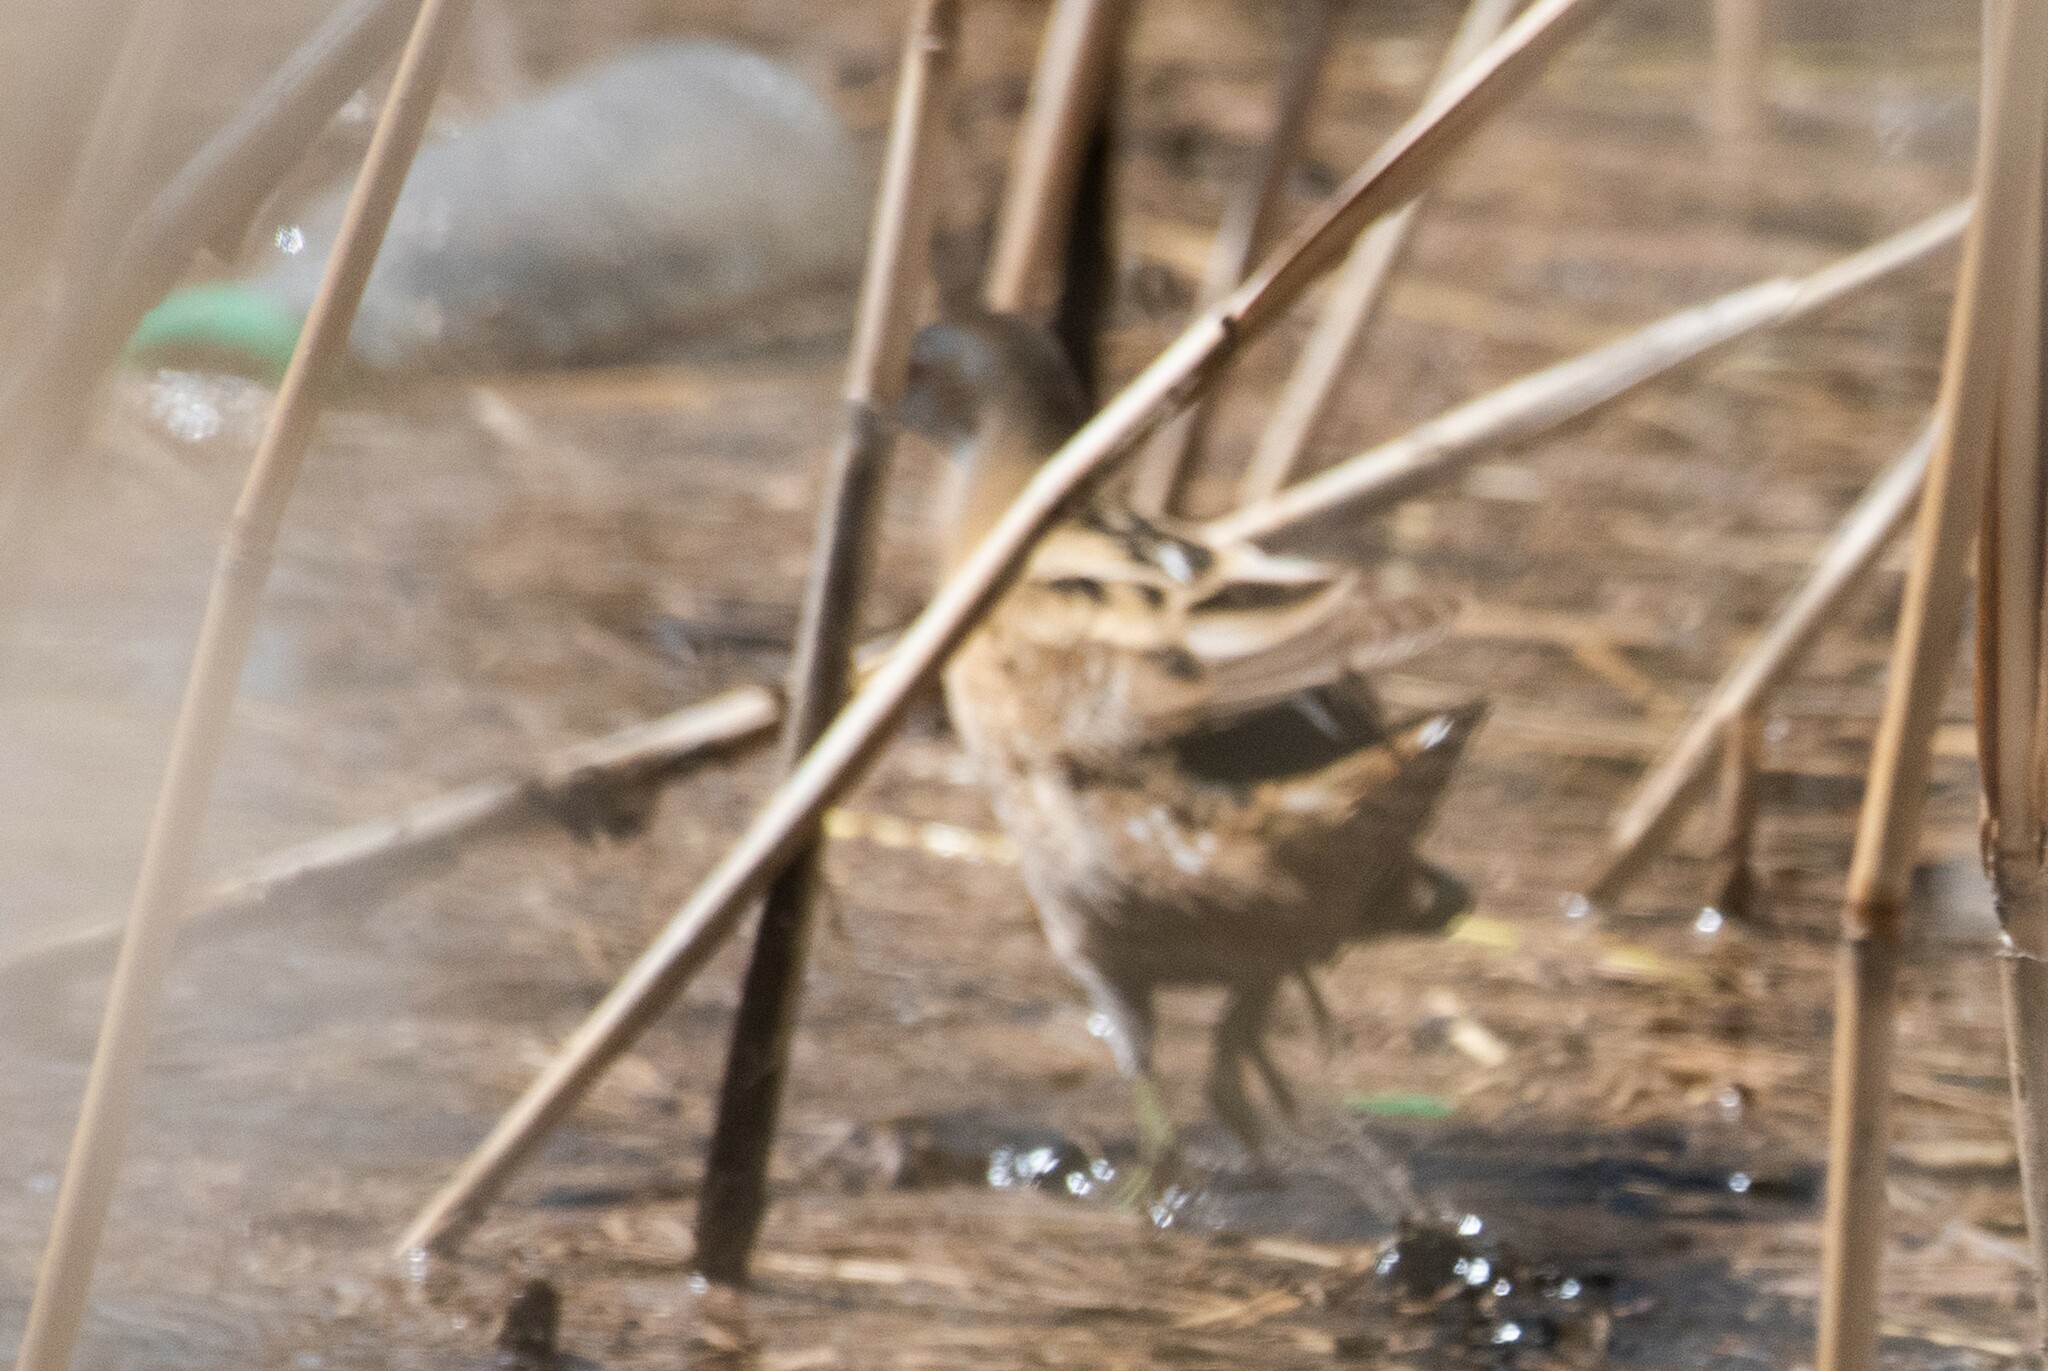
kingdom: Animalia
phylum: Chordata
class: Aves
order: Gruiformes
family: Rallidae
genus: Porzana
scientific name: Porzana parva
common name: Little crake
